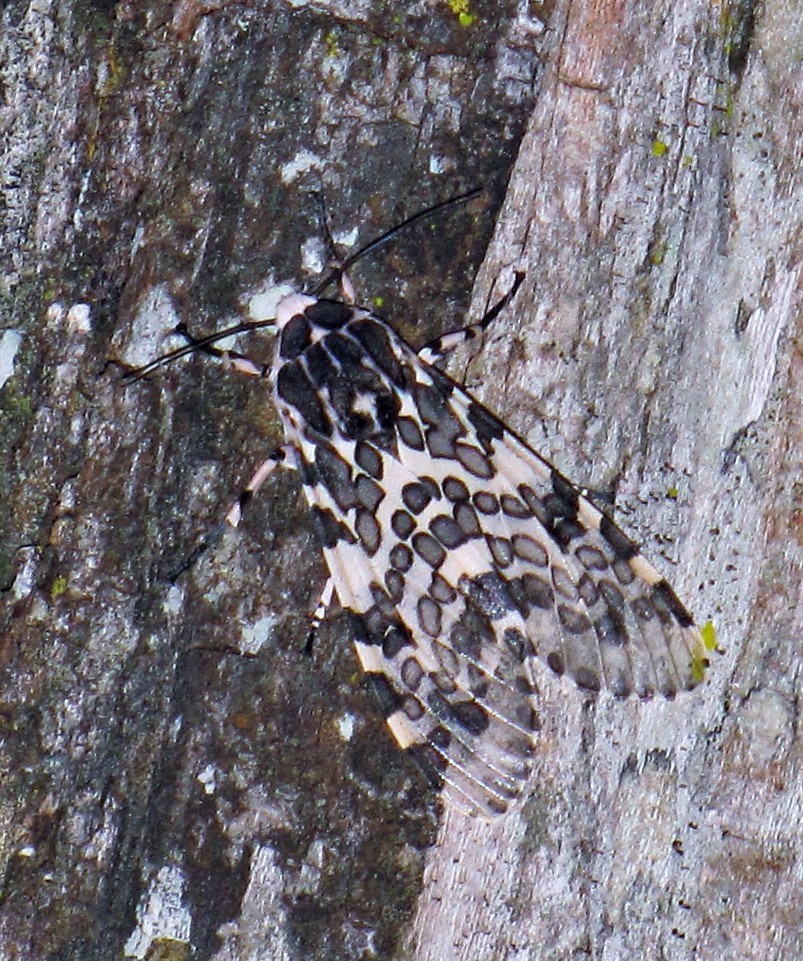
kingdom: Animalia
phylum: Arthropoda
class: Insecta
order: Lepidoptera
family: Erebidae
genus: Hypercompe
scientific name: Hypercompe kinkelini
